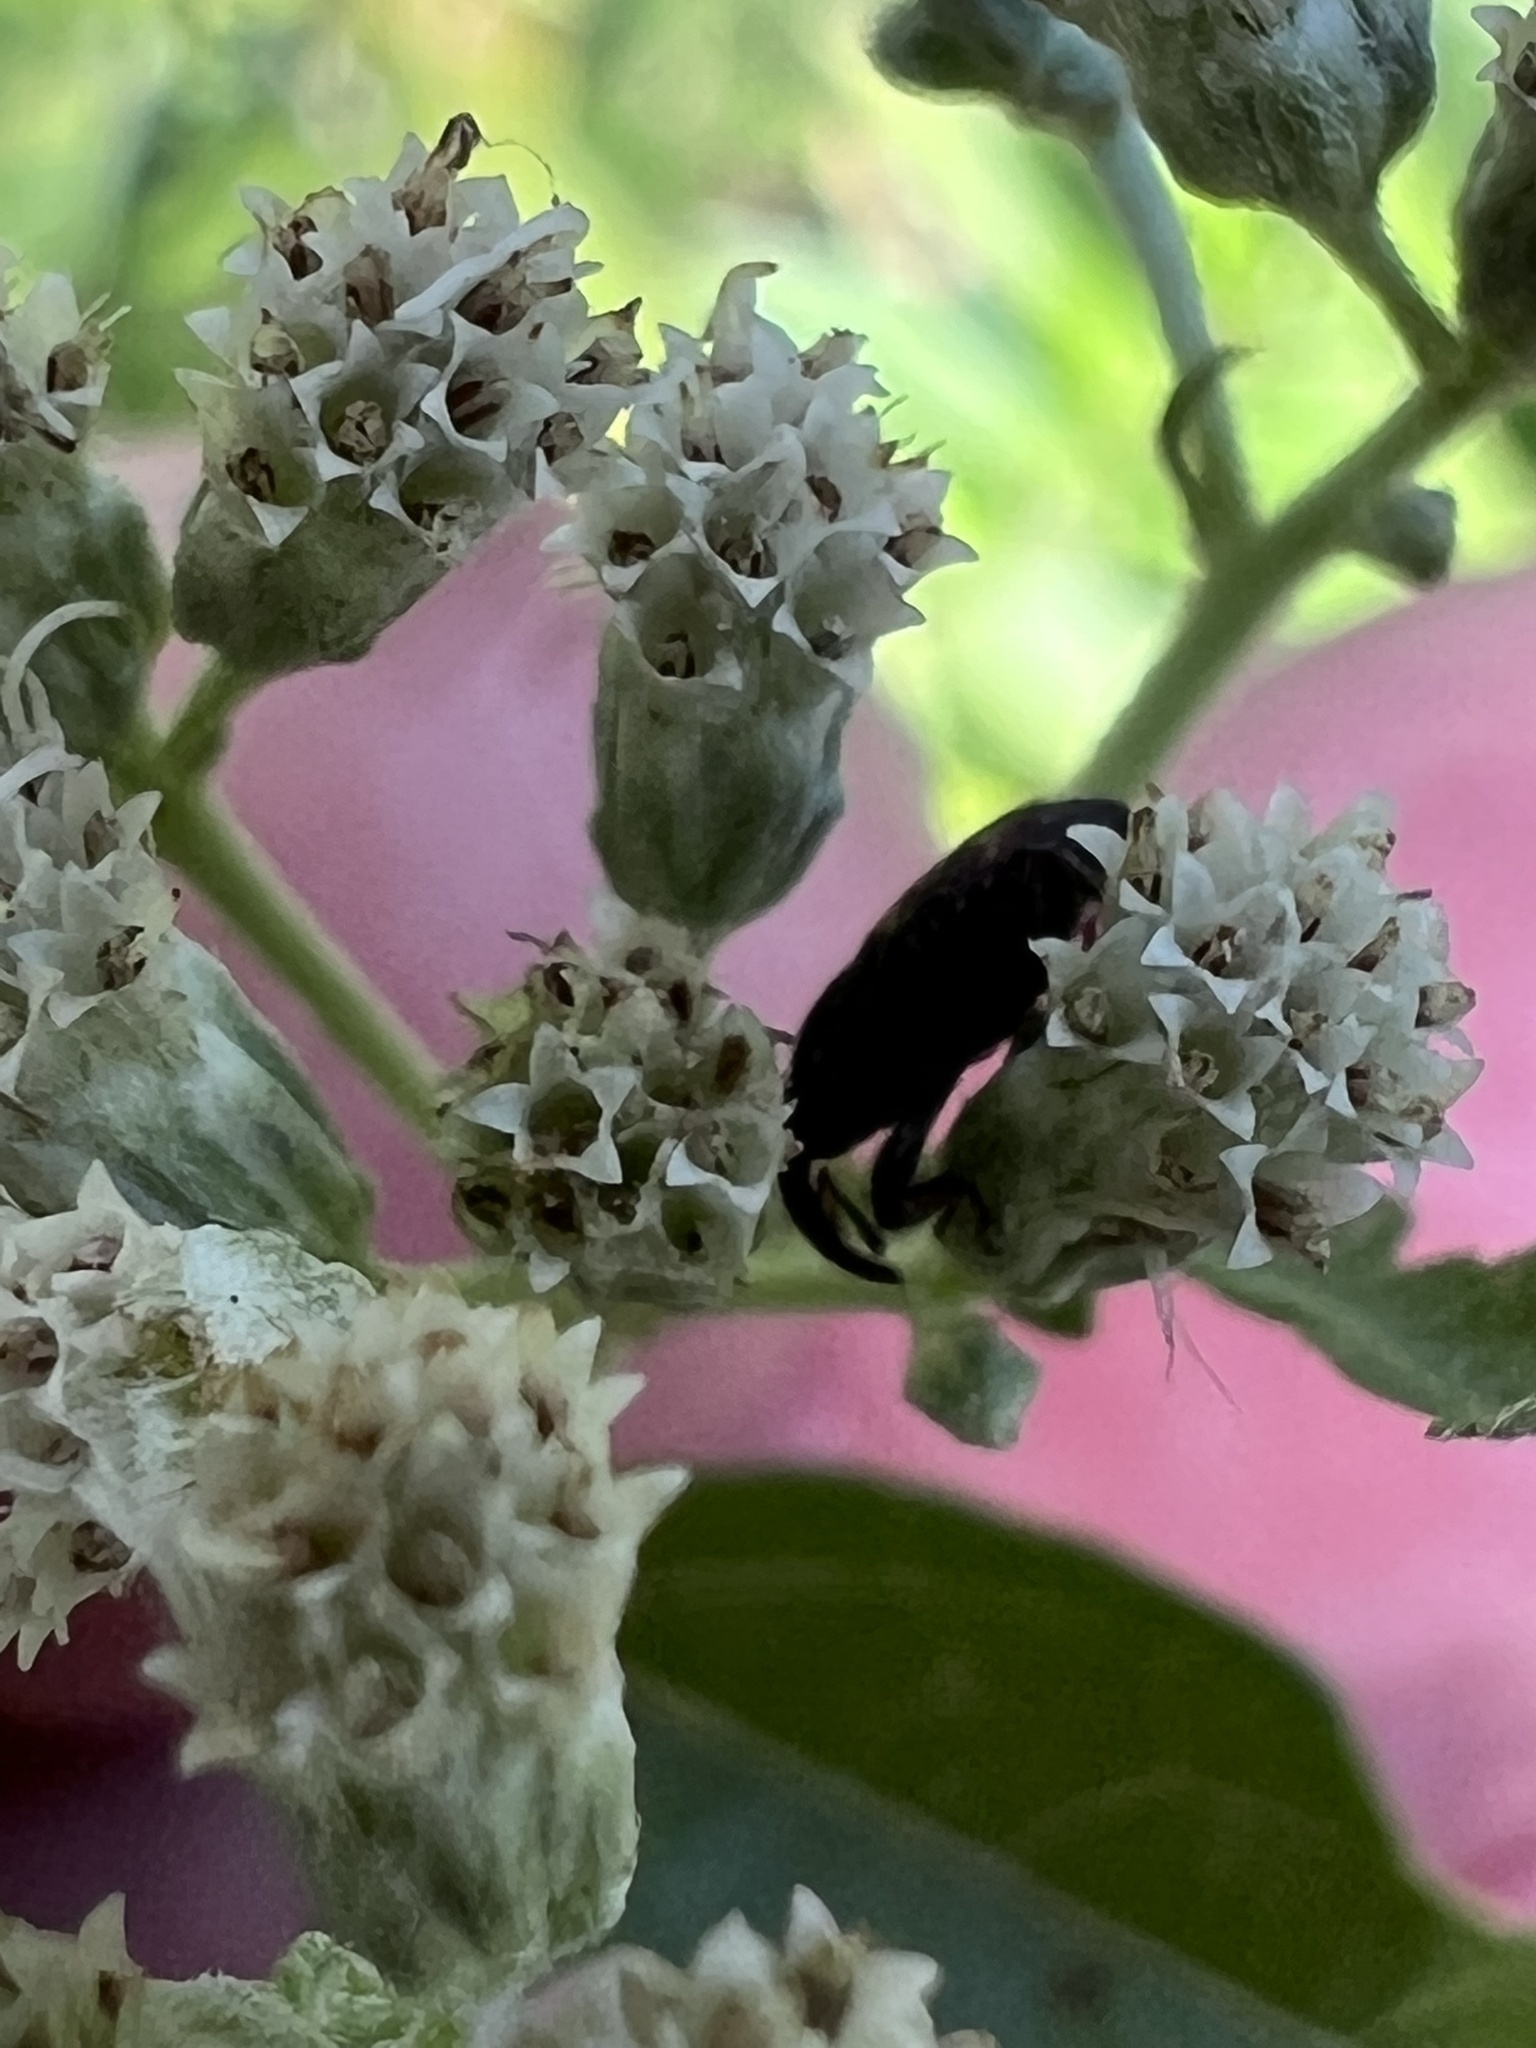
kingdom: Animalia
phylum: Arthropoda
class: Insecta
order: Coleoptera
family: Curculionidae
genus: Glyptobaris
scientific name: Glyptobaris lecontei
